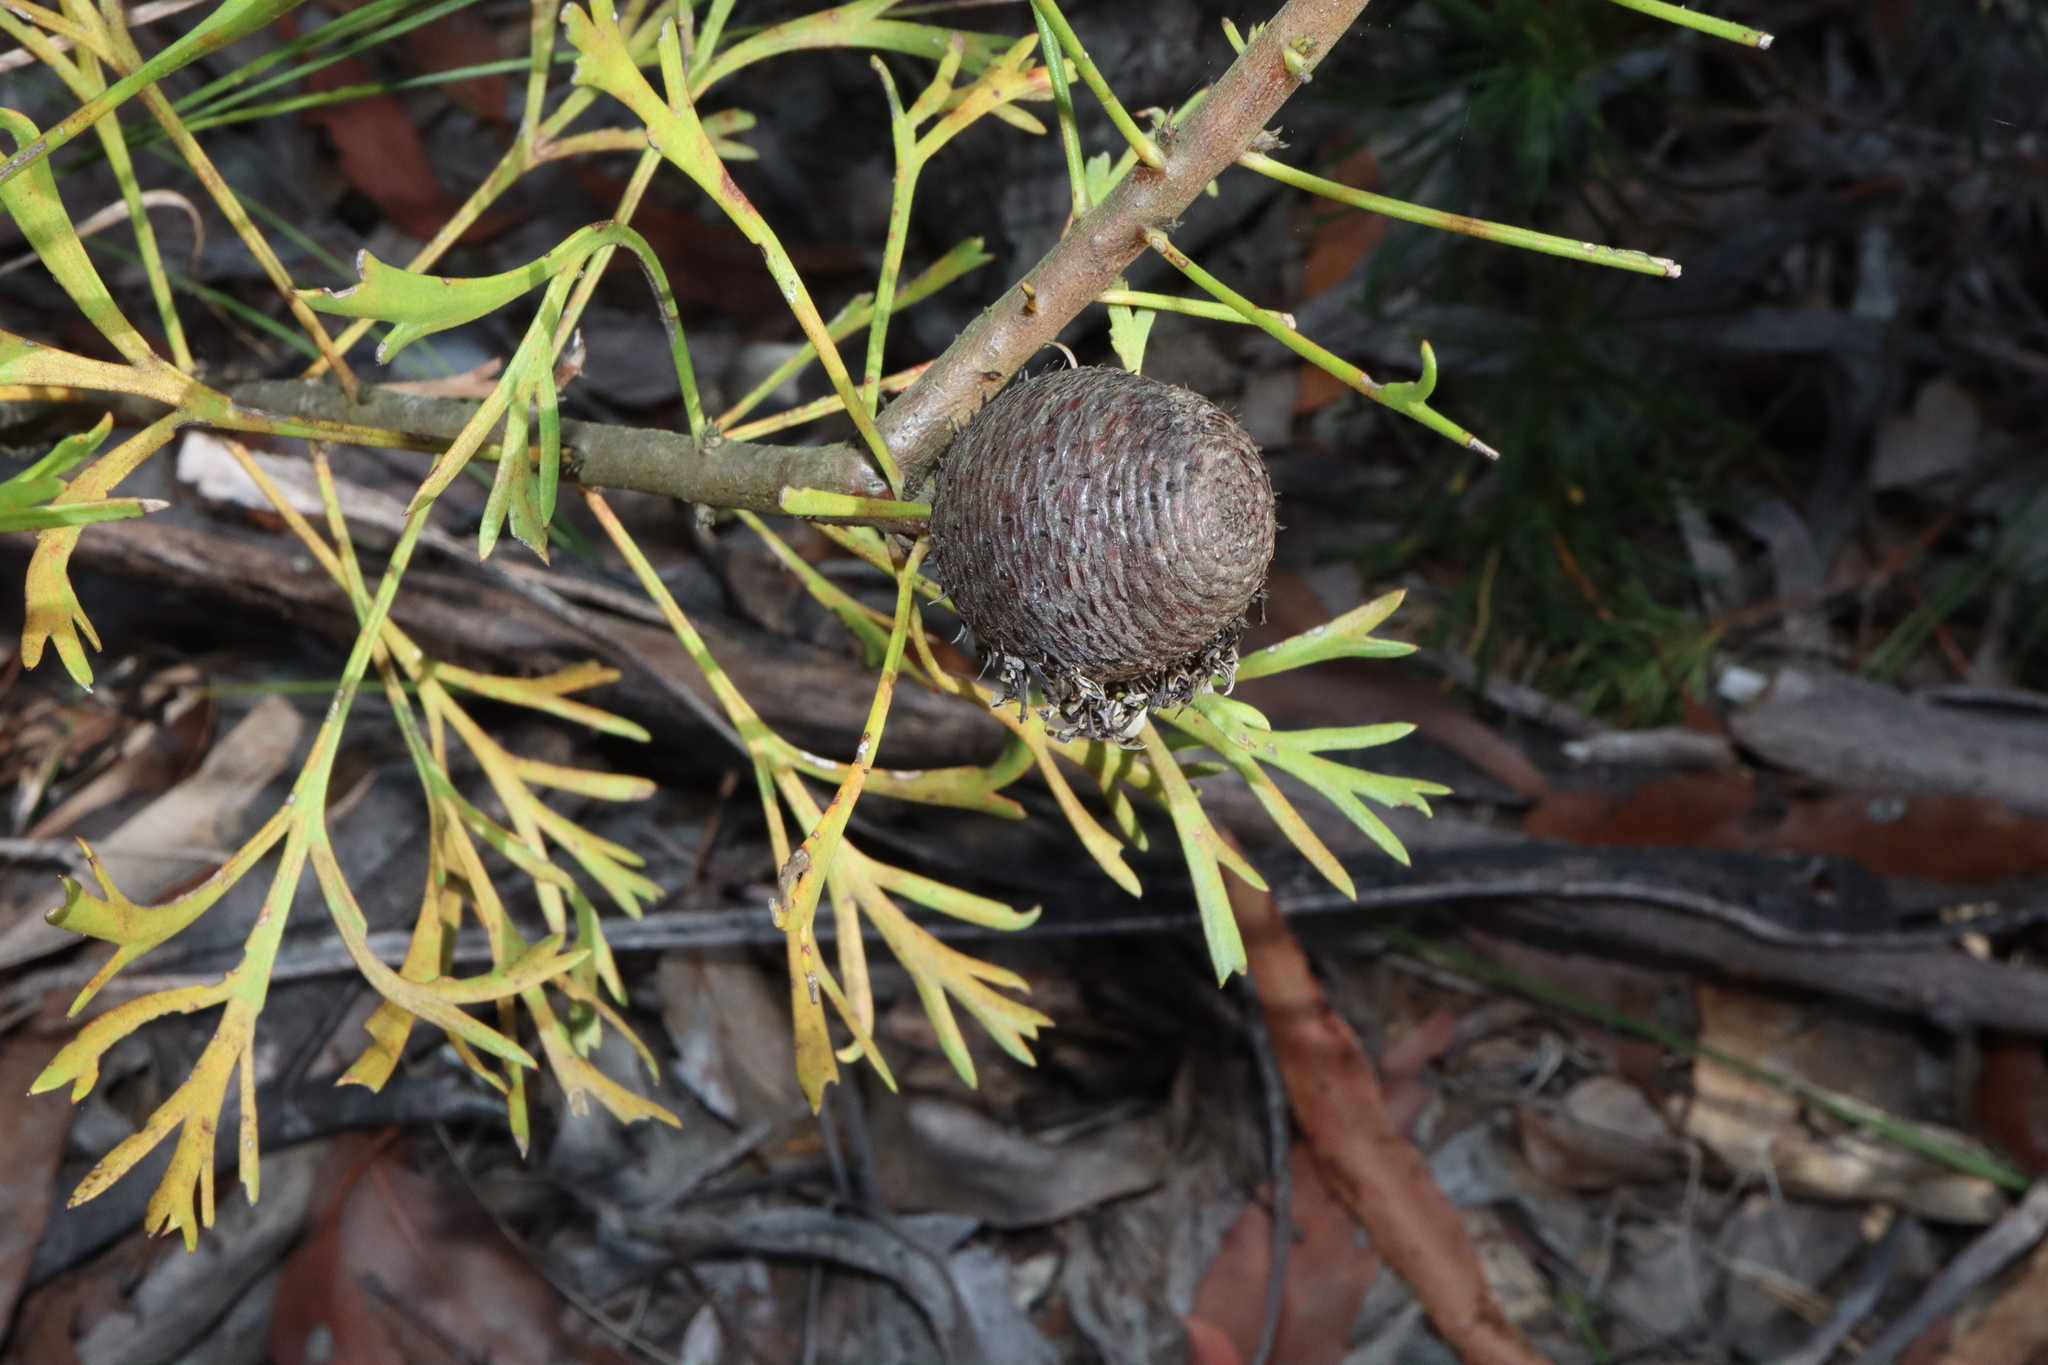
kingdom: Plantae
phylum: Tracheophyta
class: Magnoliopsida
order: Proteales
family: Proteaceae
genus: Isopogon
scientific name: Isopogon anemonifolius
